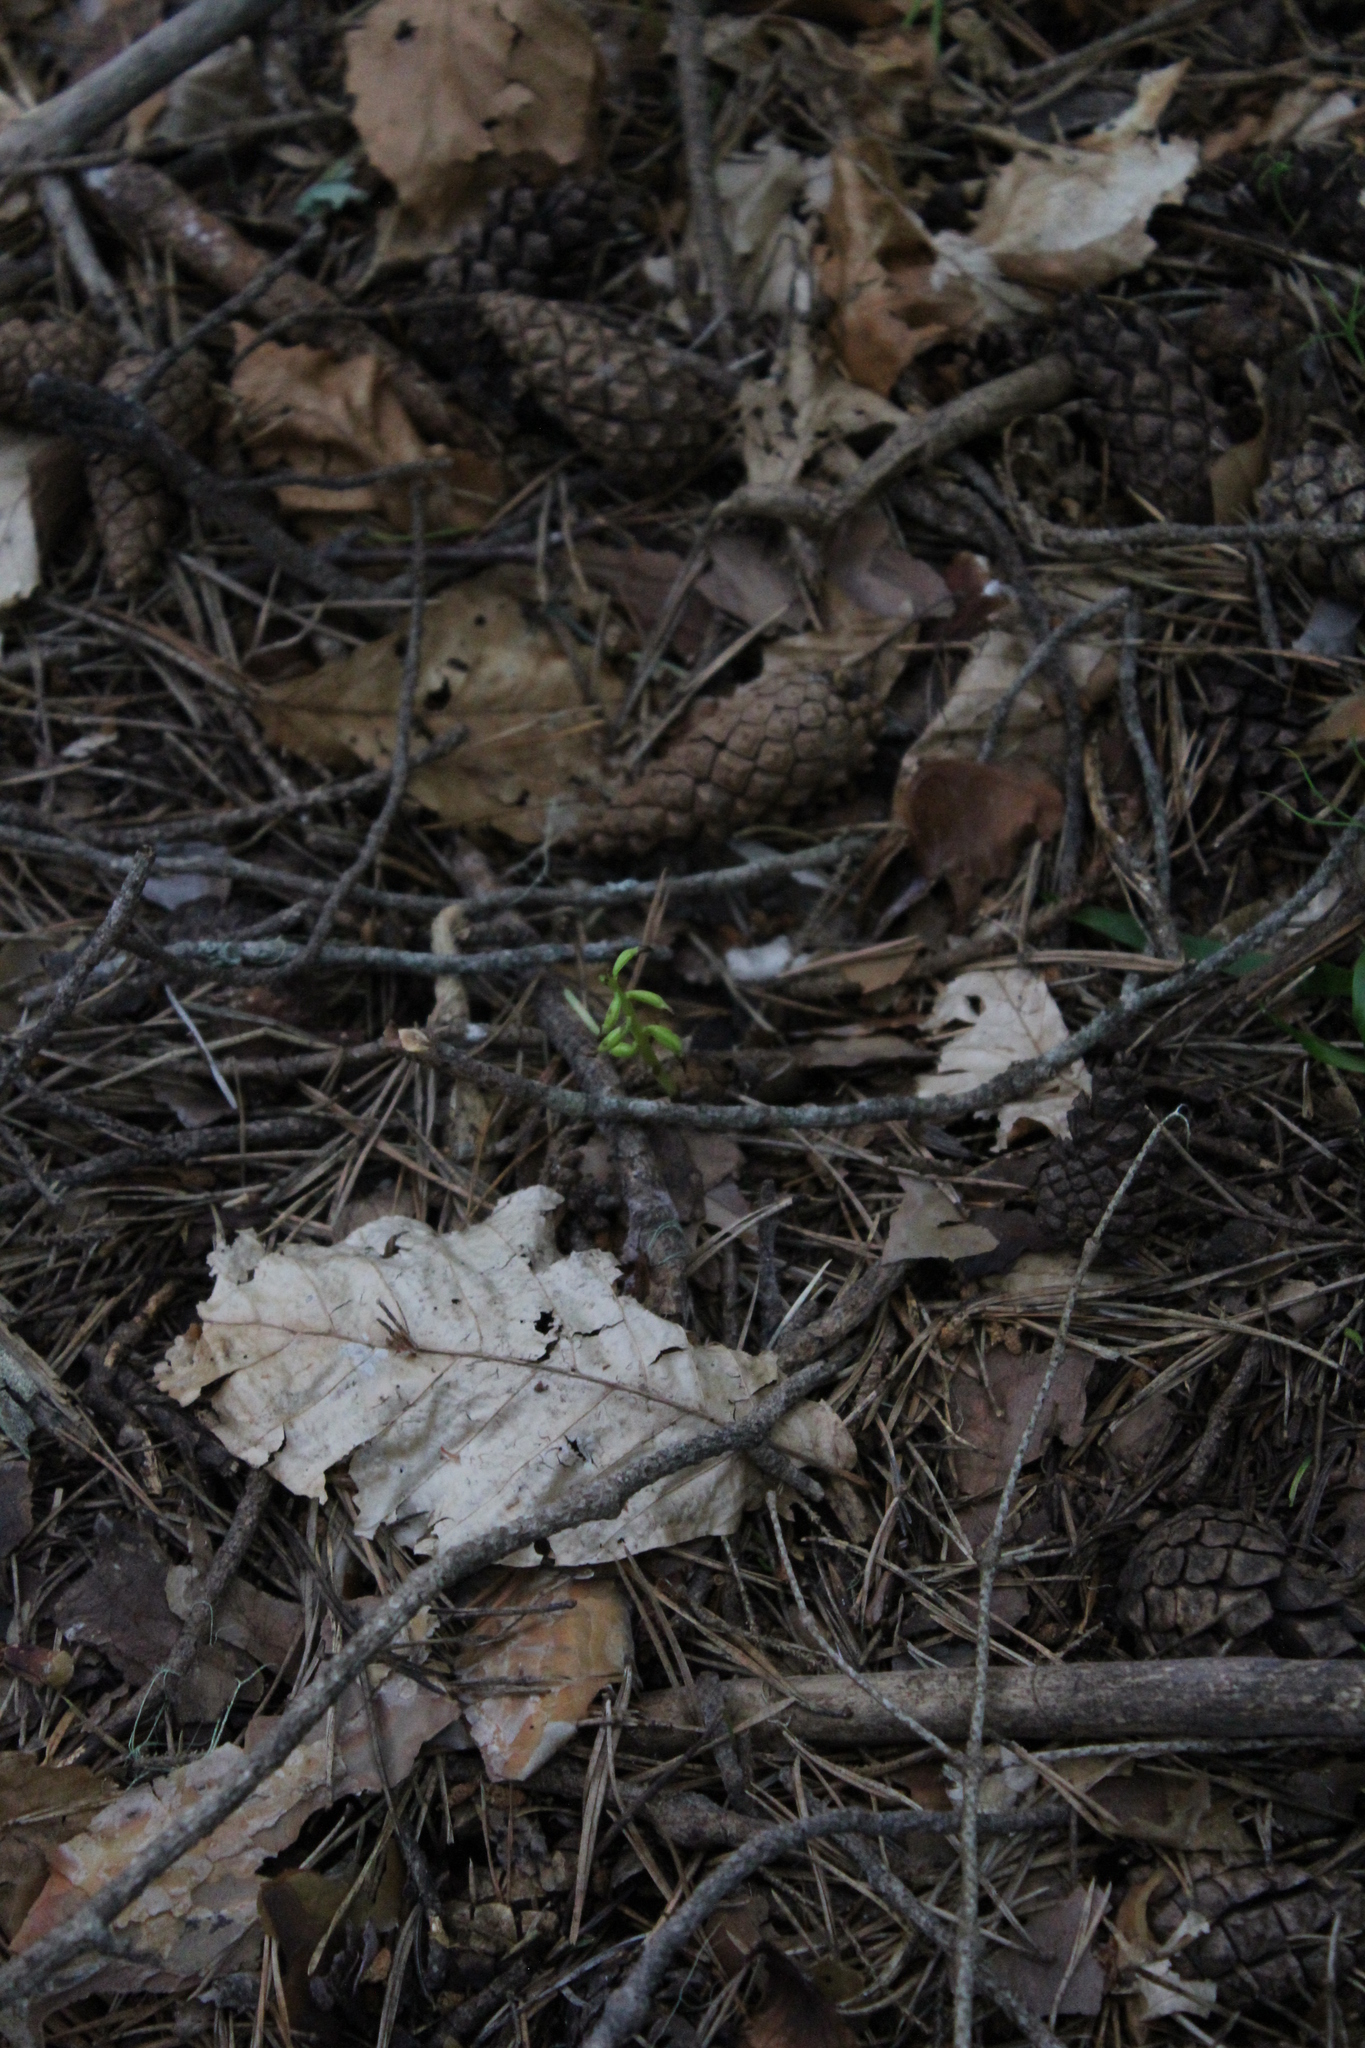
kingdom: Plantae
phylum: Tracheophyta
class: Liliopsida
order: Asparagales
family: Orchidaceae
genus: Corallorhiza
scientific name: Corallorhiza trifida
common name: Yellow coralroot
